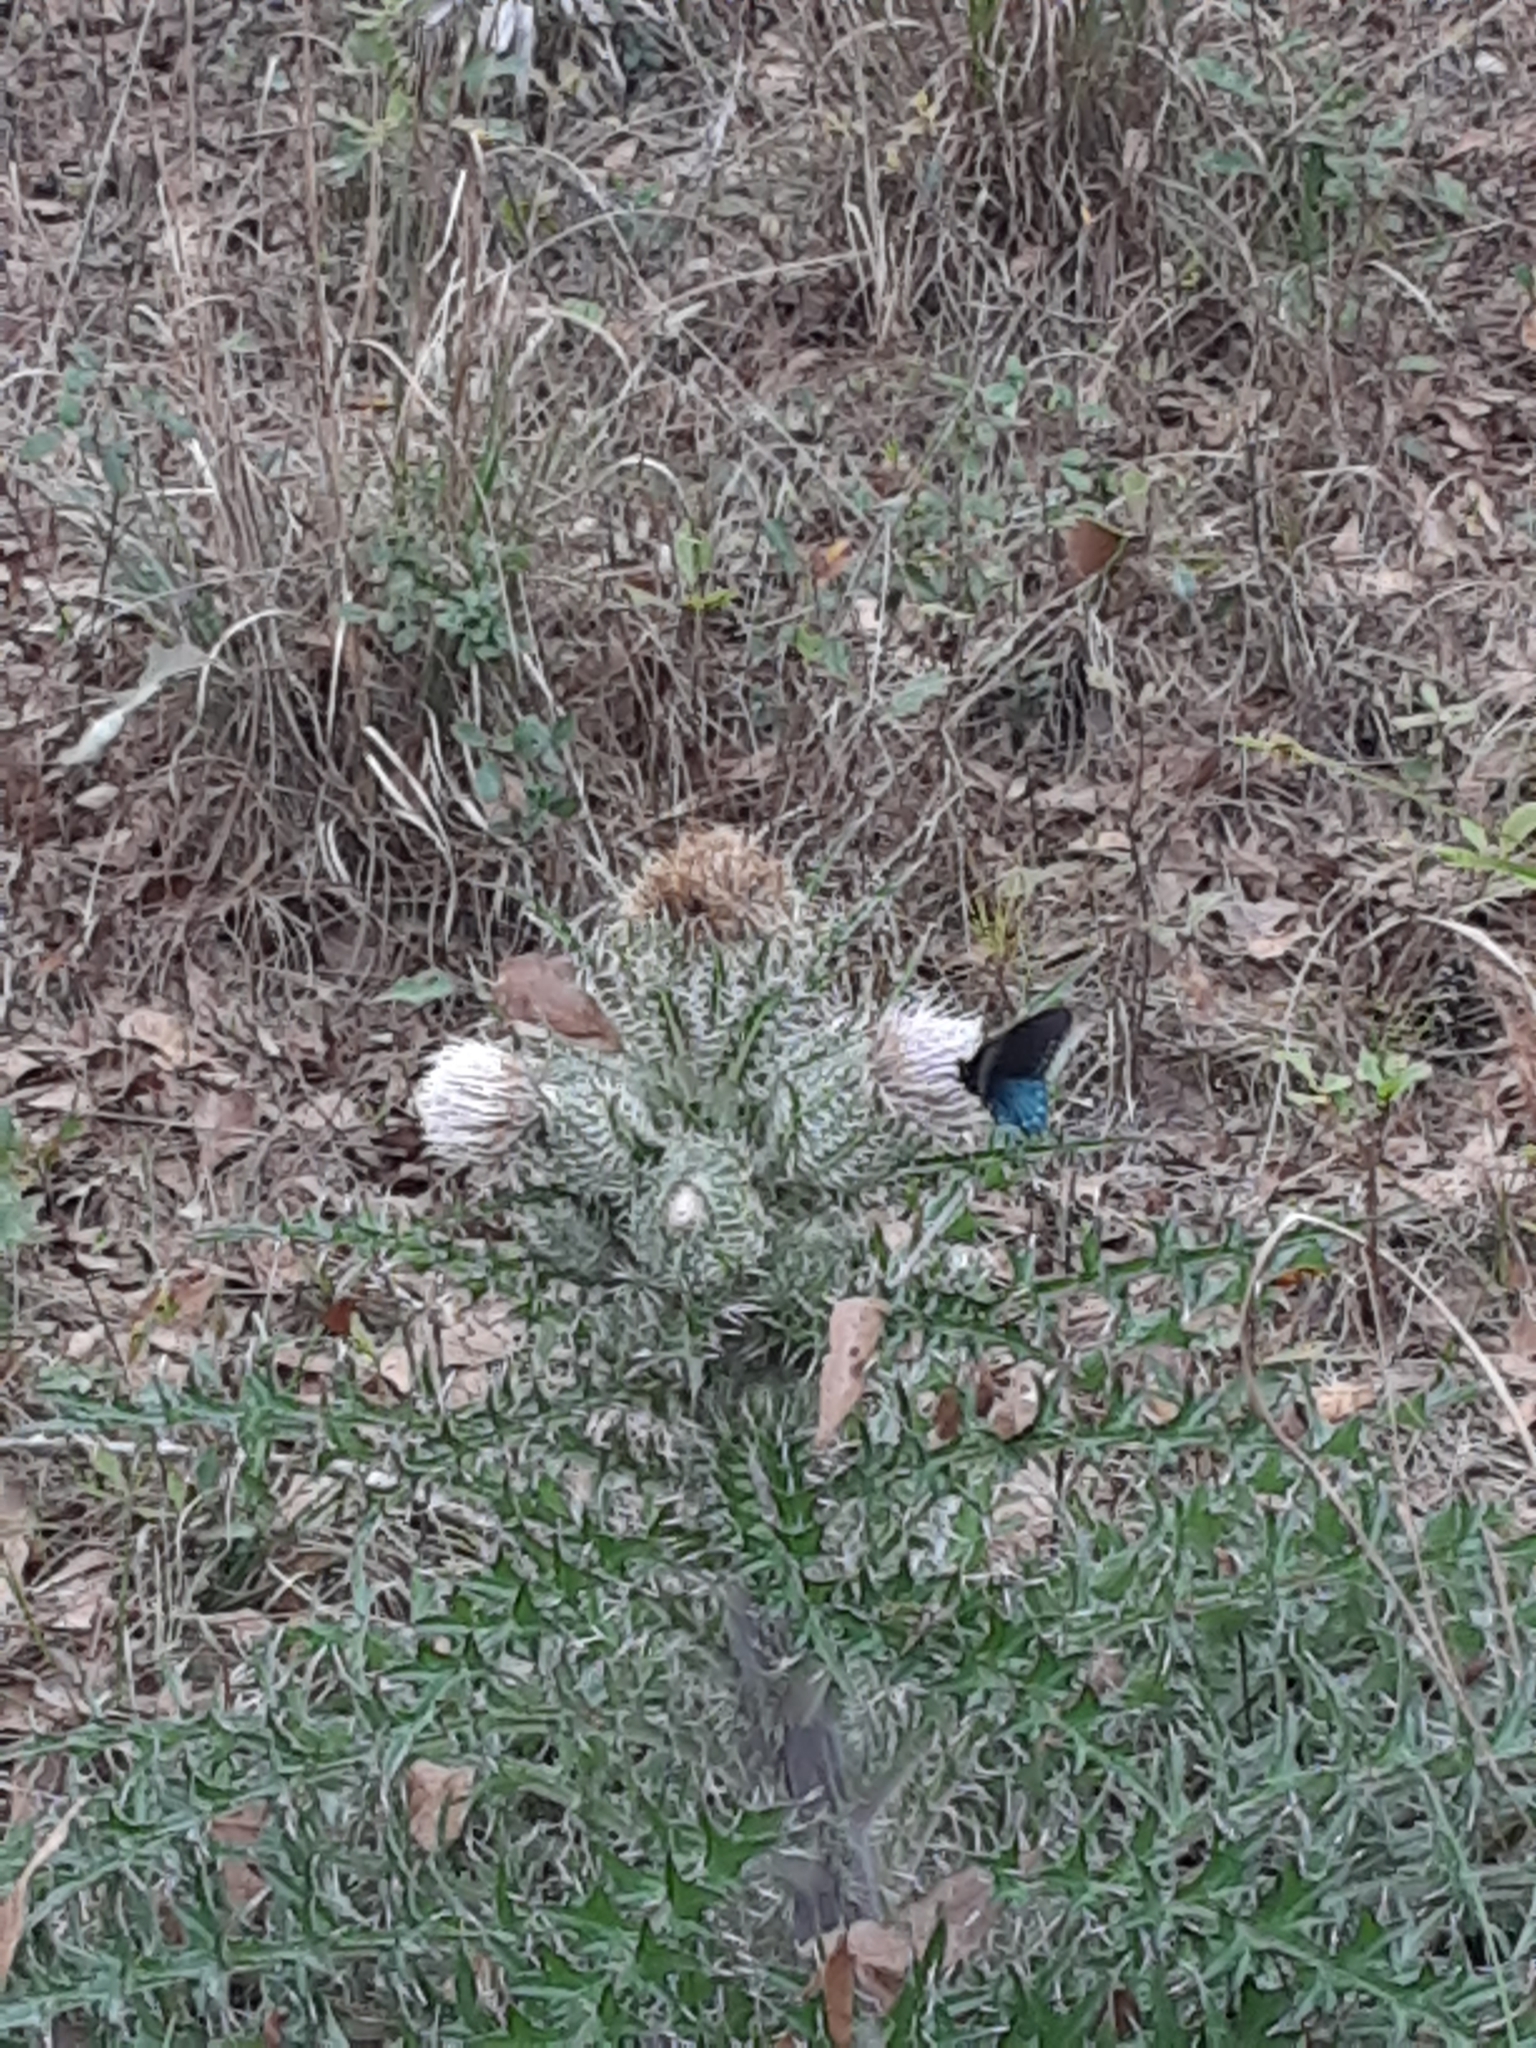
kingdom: Animalia
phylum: Arthropoda
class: Insecta
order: Lepidoptera
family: Papilionidae
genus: Battus
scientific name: Battus philenor
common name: Pipevine swallowtail
